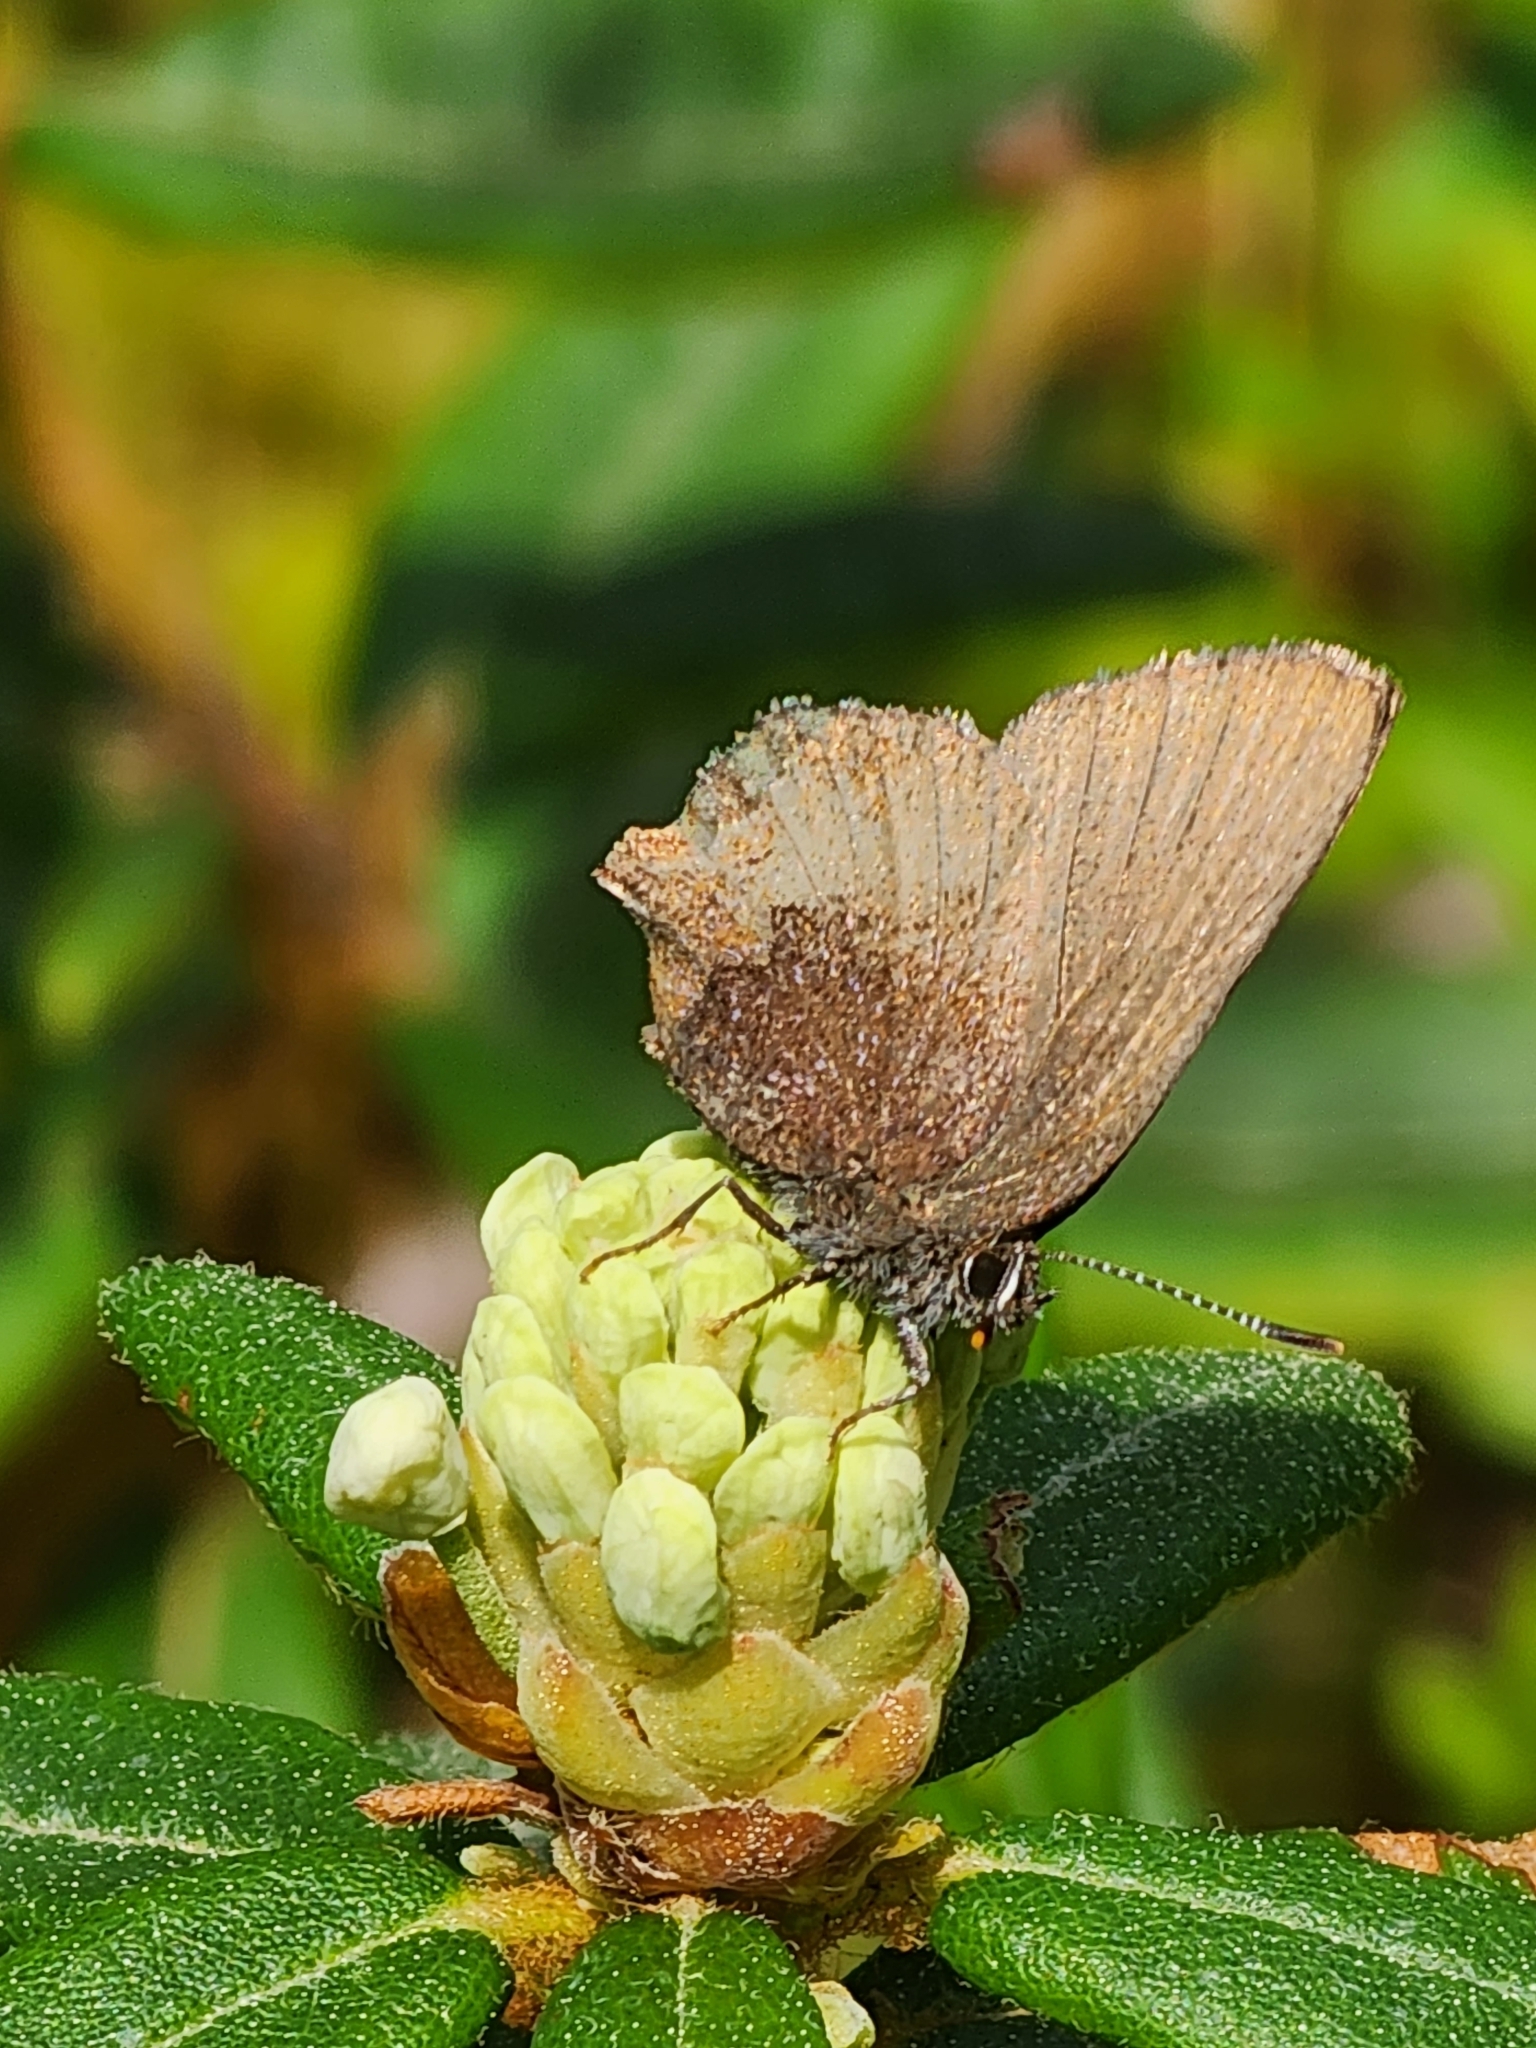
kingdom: Animalia
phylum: Arthropoda
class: Insecta
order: Lepidoptera
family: Lycaenidae
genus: Incisalia
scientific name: Incisalia irioides
